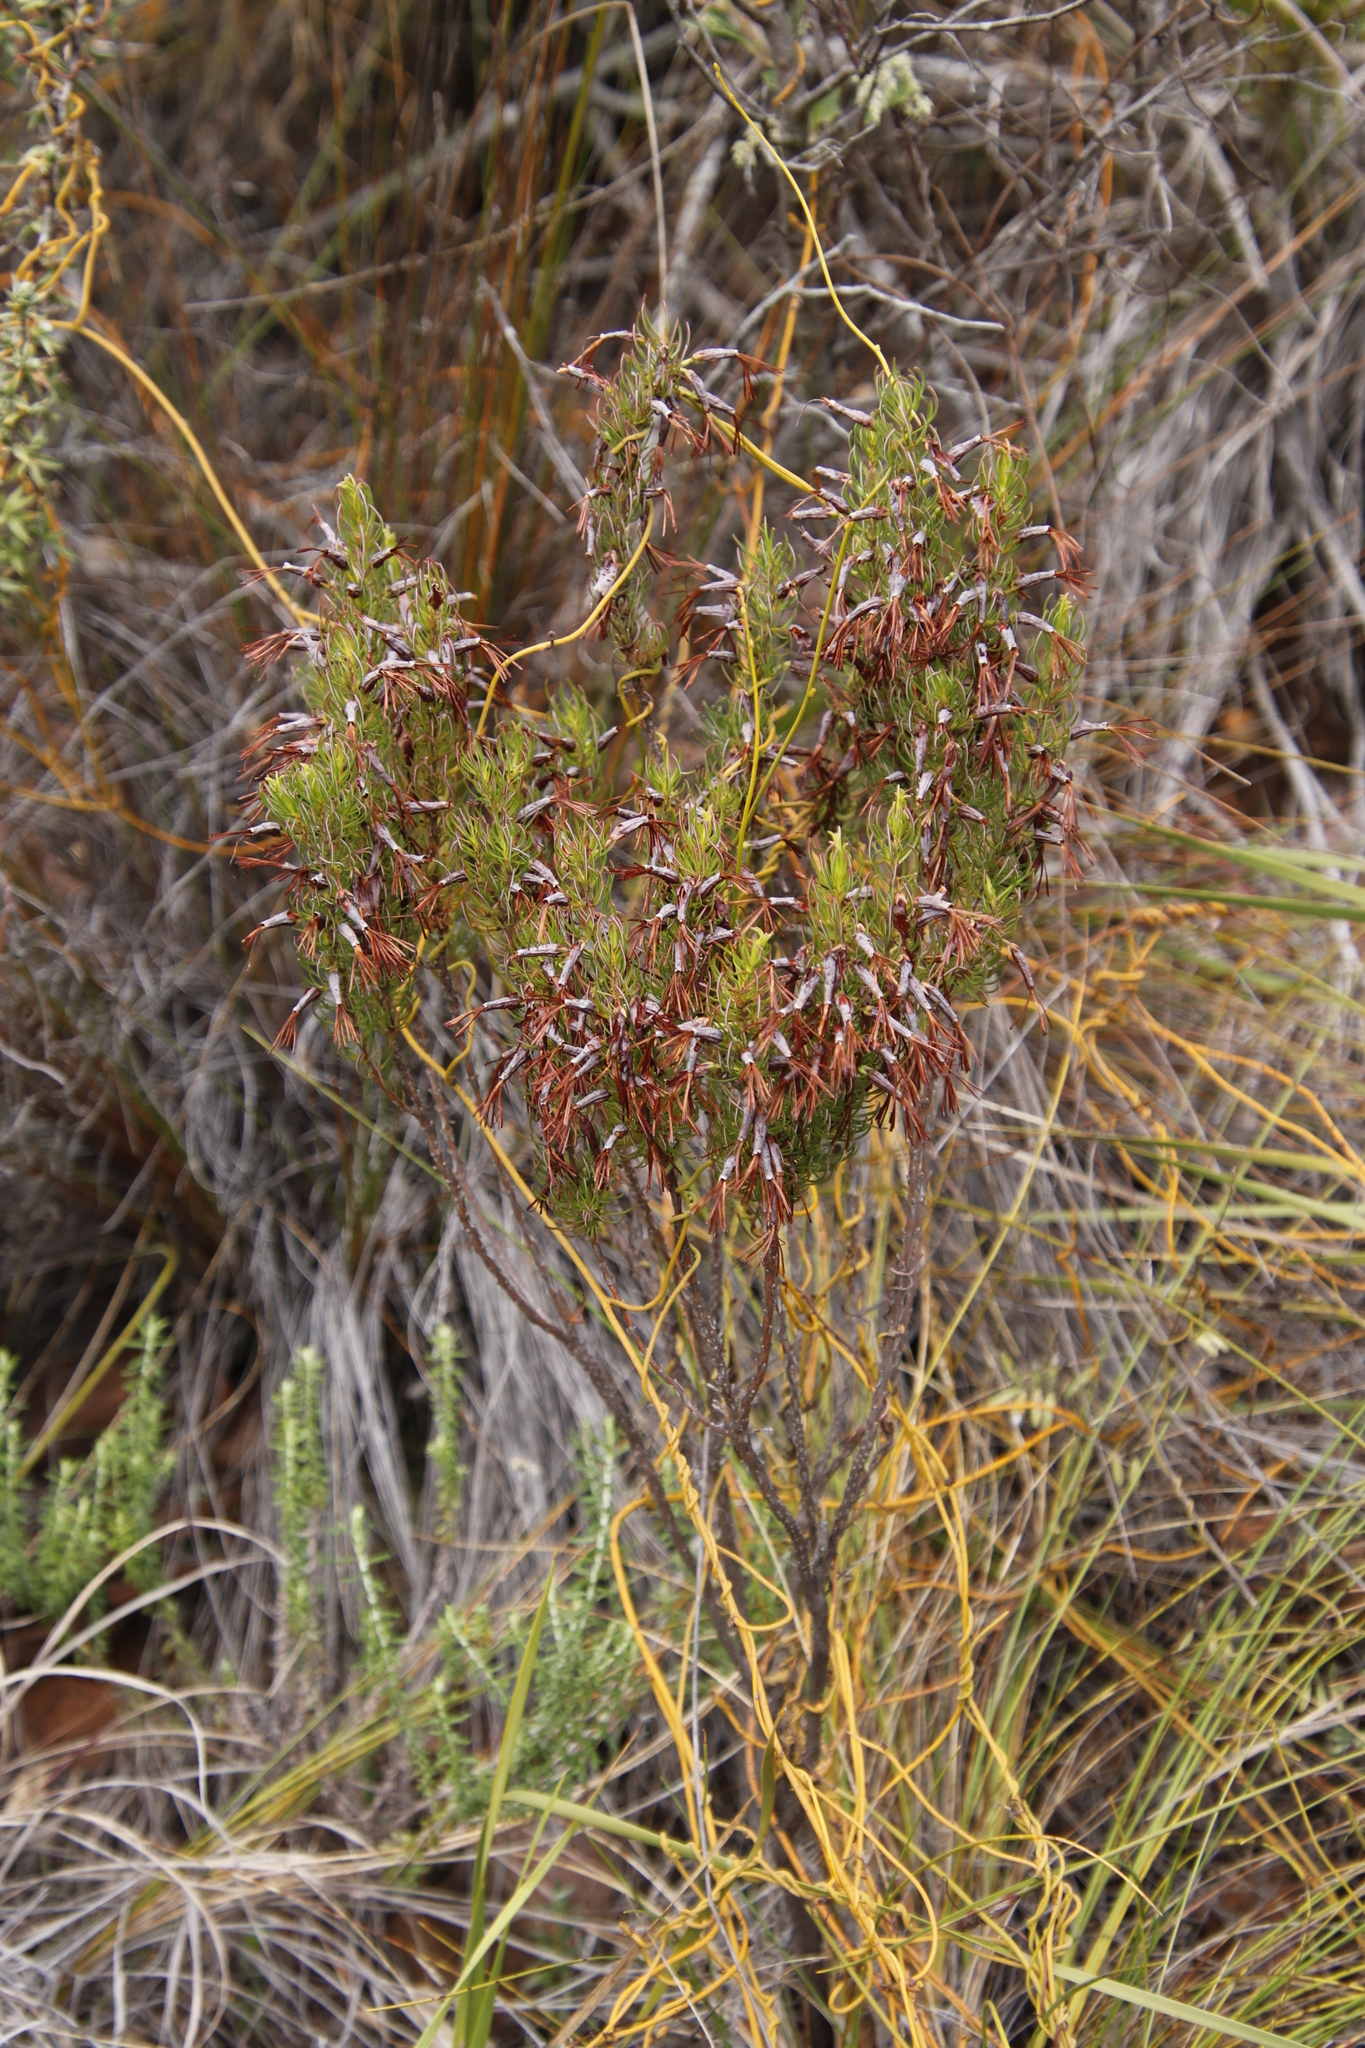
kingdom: Plantae
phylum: Tracheophyta
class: Magnoliopsida
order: Ericales
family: Ericaceae
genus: Erica
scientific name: Erica plukenetii
